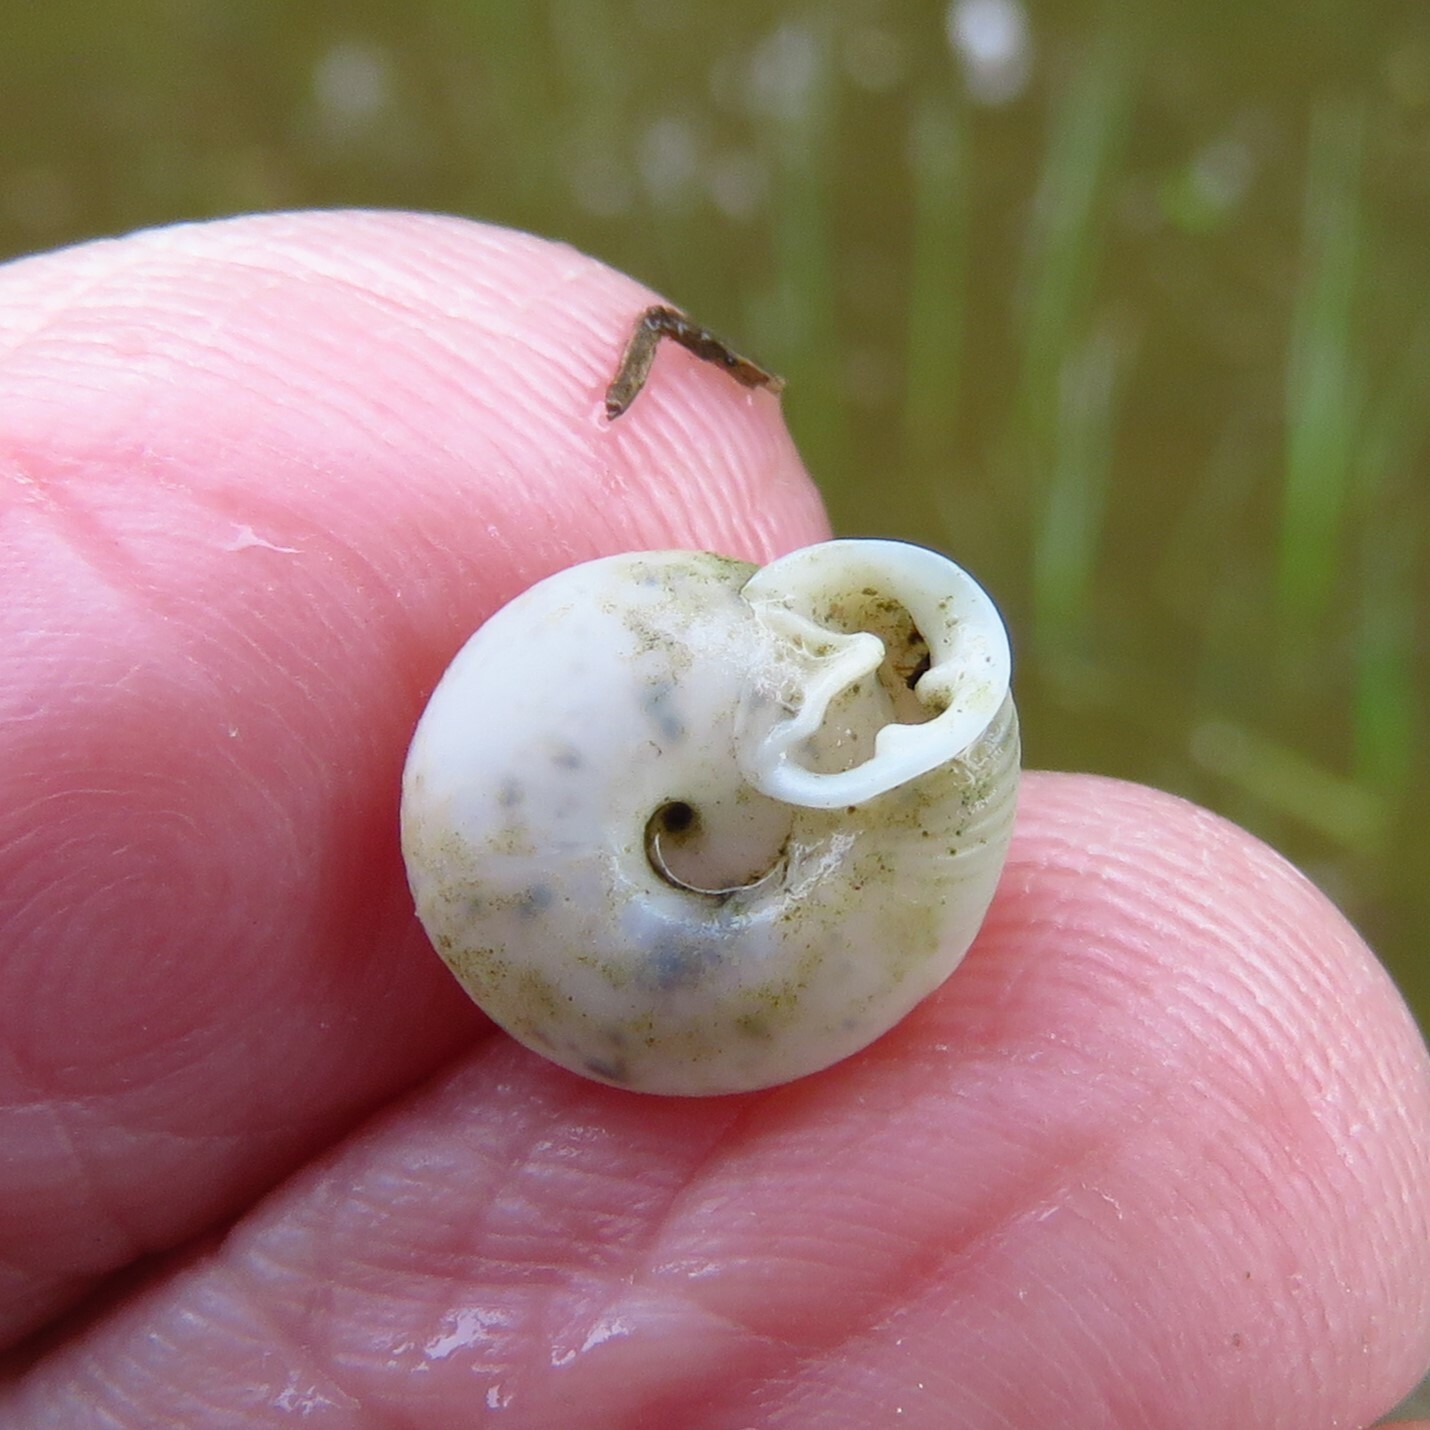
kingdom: Animalia
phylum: Mollusca
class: Gastropoda
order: Stylommatophora
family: Polygyridae
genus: Linisa
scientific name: Linisa texasiana
